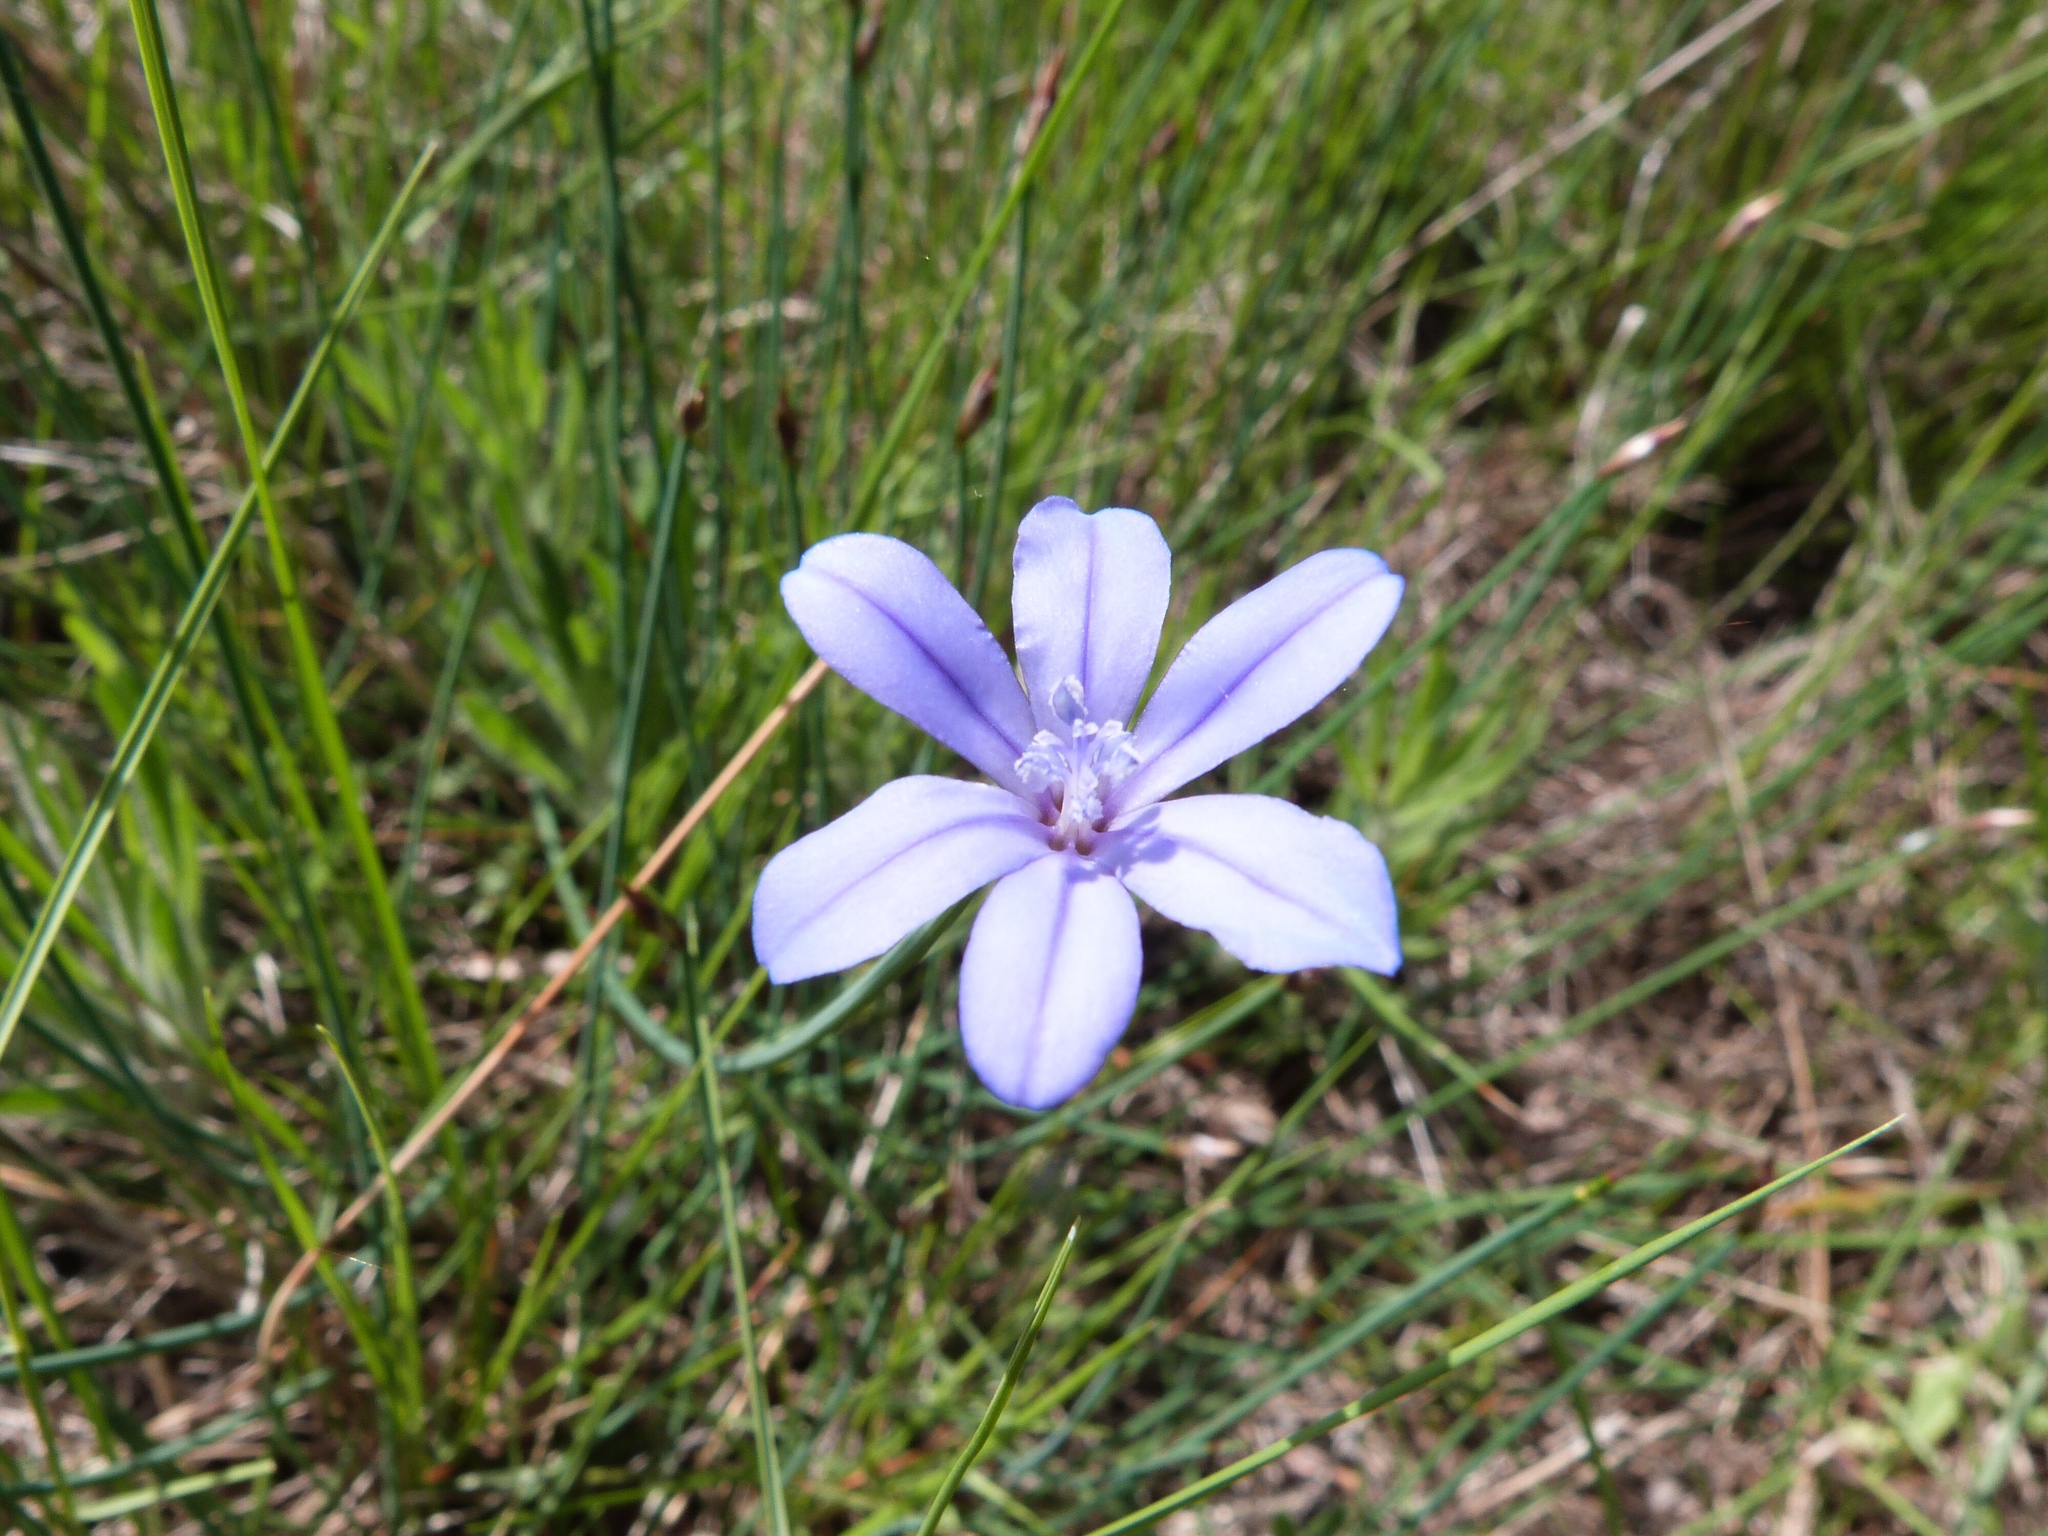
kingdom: Plantae
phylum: Tracheophyta
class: Liliopsida
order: Asparagales
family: Asparagaceae
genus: Aphyllanthes
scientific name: Aphyllanthes monspeliensis
